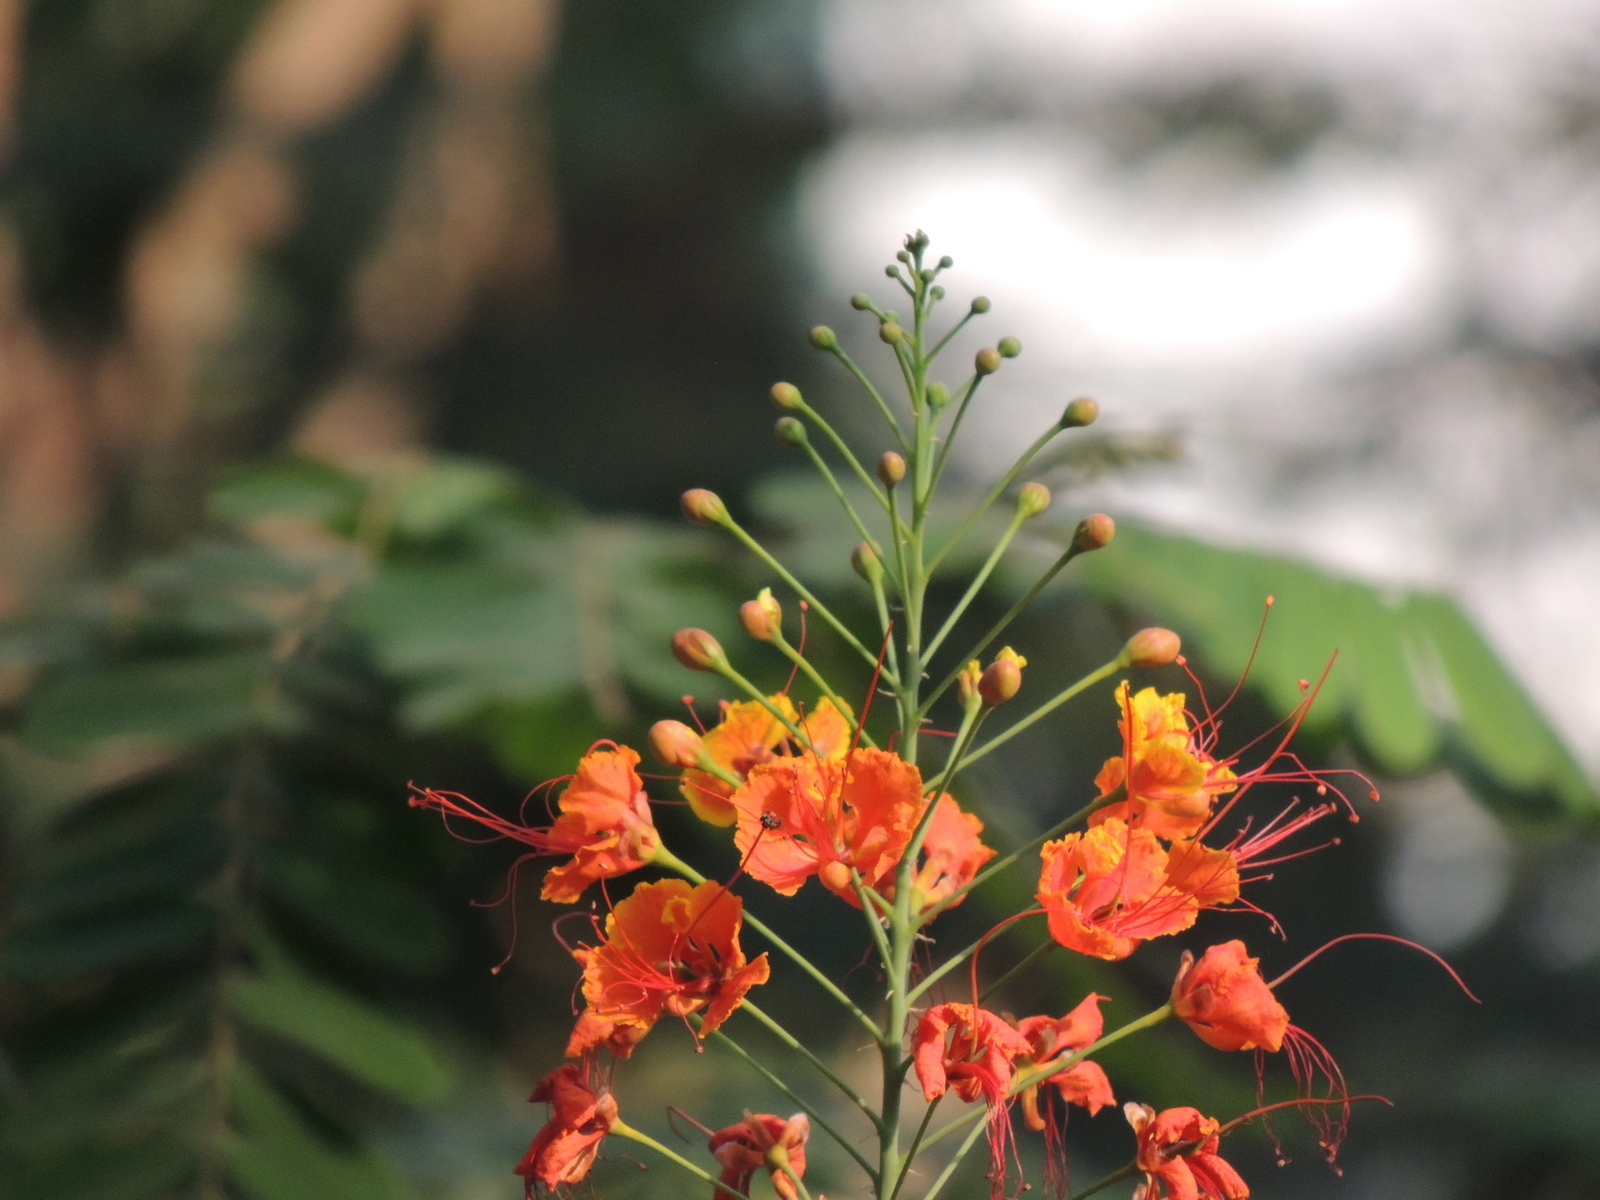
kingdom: Plantae
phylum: Tracheophyta
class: Magnoliopsida
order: Fabales
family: Fabaceae
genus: Caesalpinia
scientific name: Caesalpinia pulcherrima
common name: Pride-of-barbados
